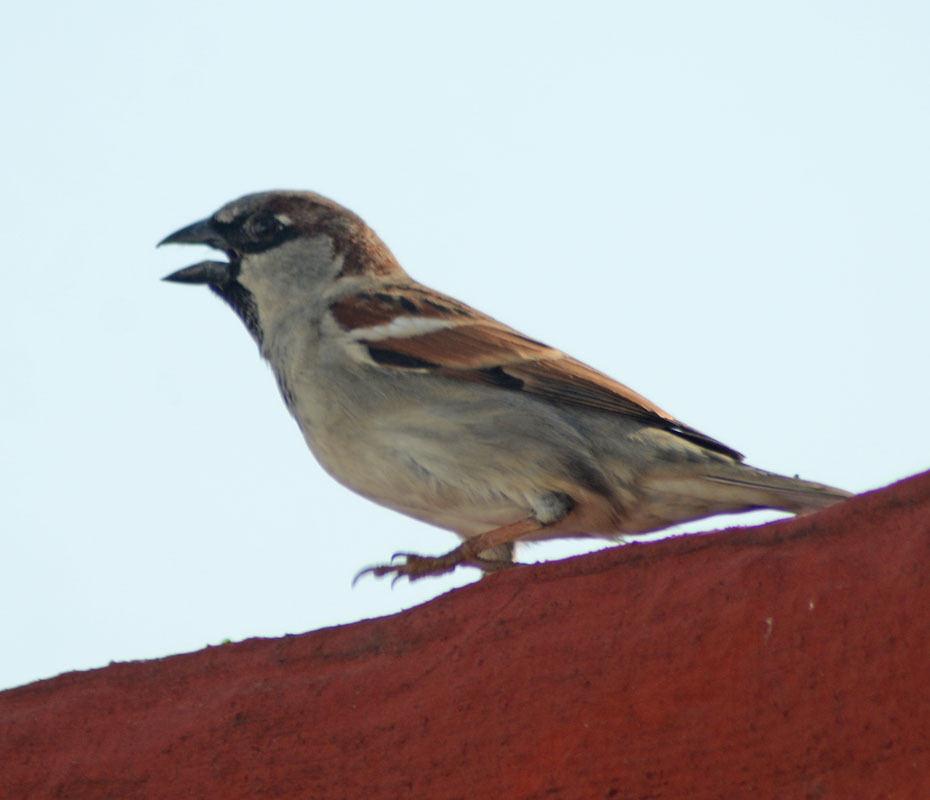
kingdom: Animalia
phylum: Chordata
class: Aves
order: Passeriformes
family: Passeridae
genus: Passer
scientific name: Passer domesticus
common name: House sparrow
